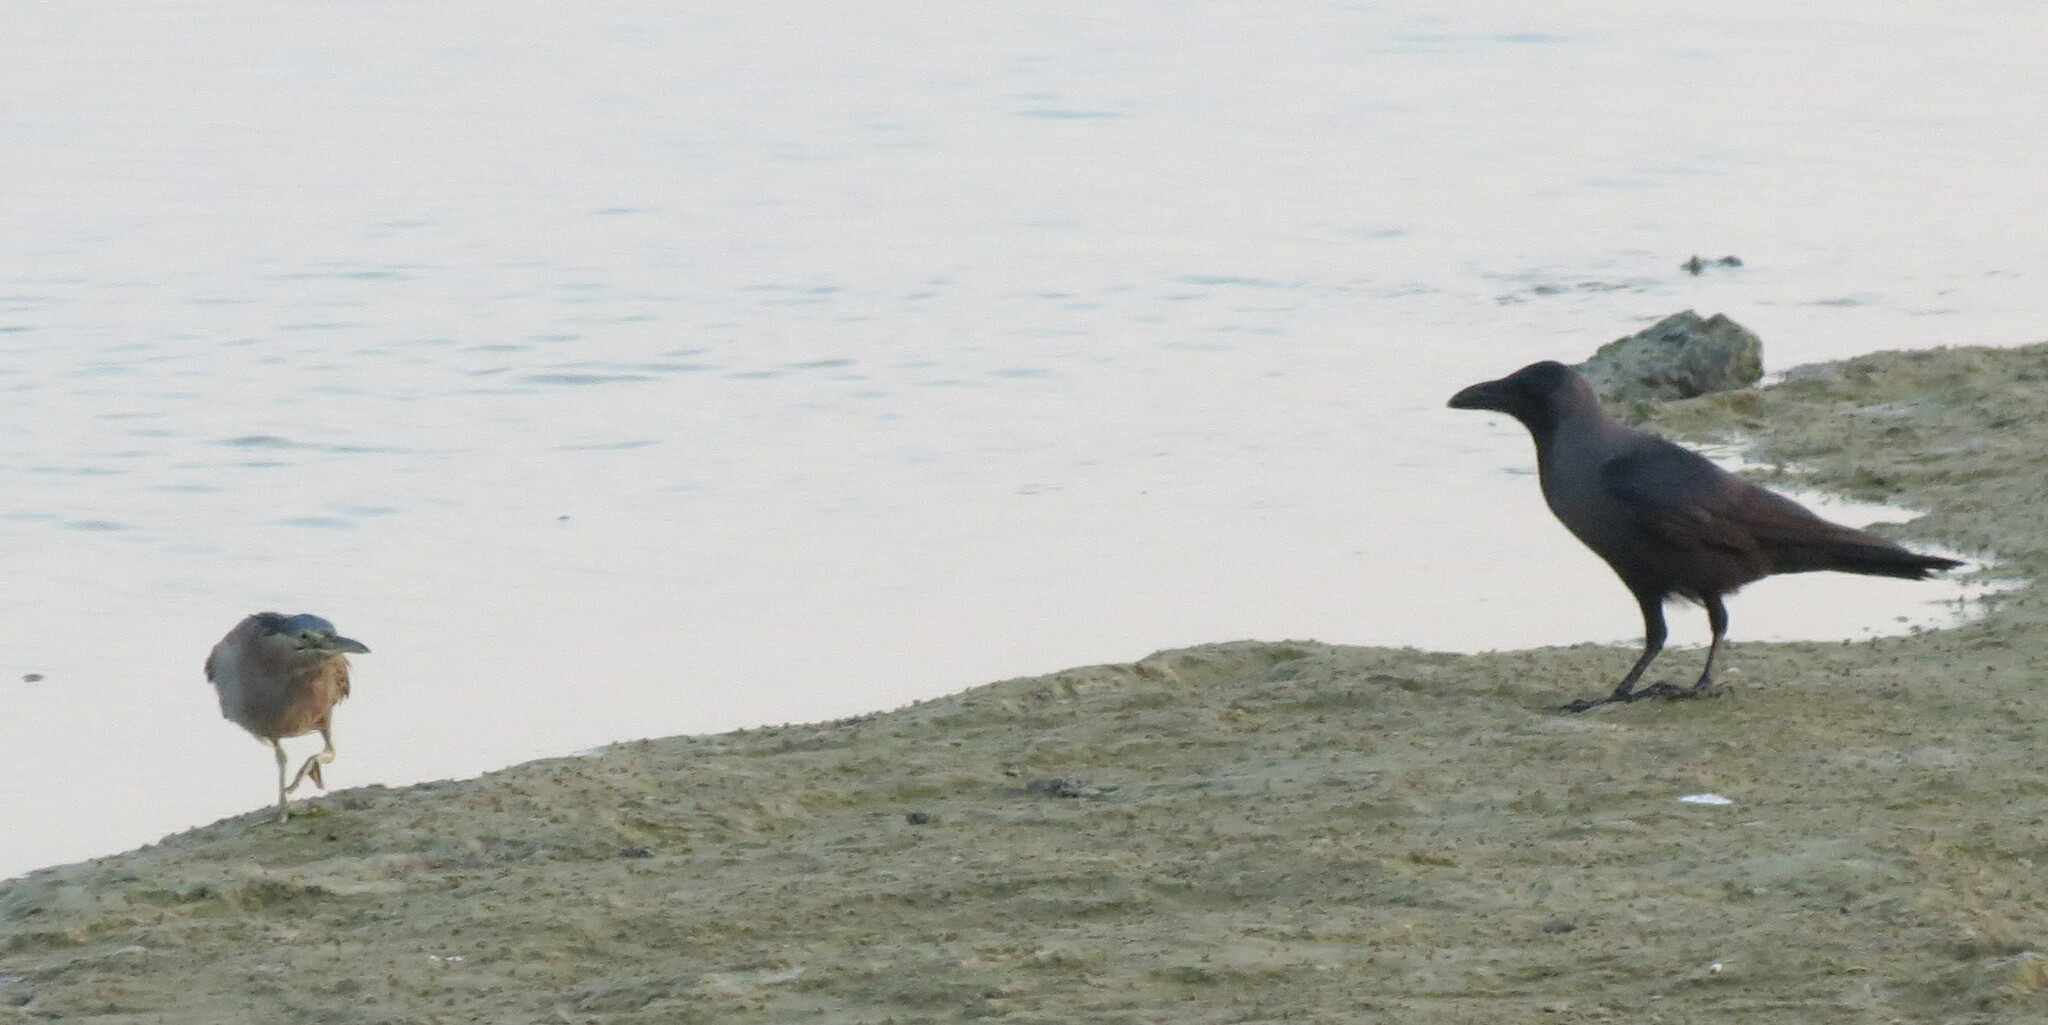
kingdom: Animalia
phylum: Chordata
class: Aves
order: Pelecaniformes
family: Ardeidae
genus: Butorides
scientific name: Butorides striata
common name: Striated heron
